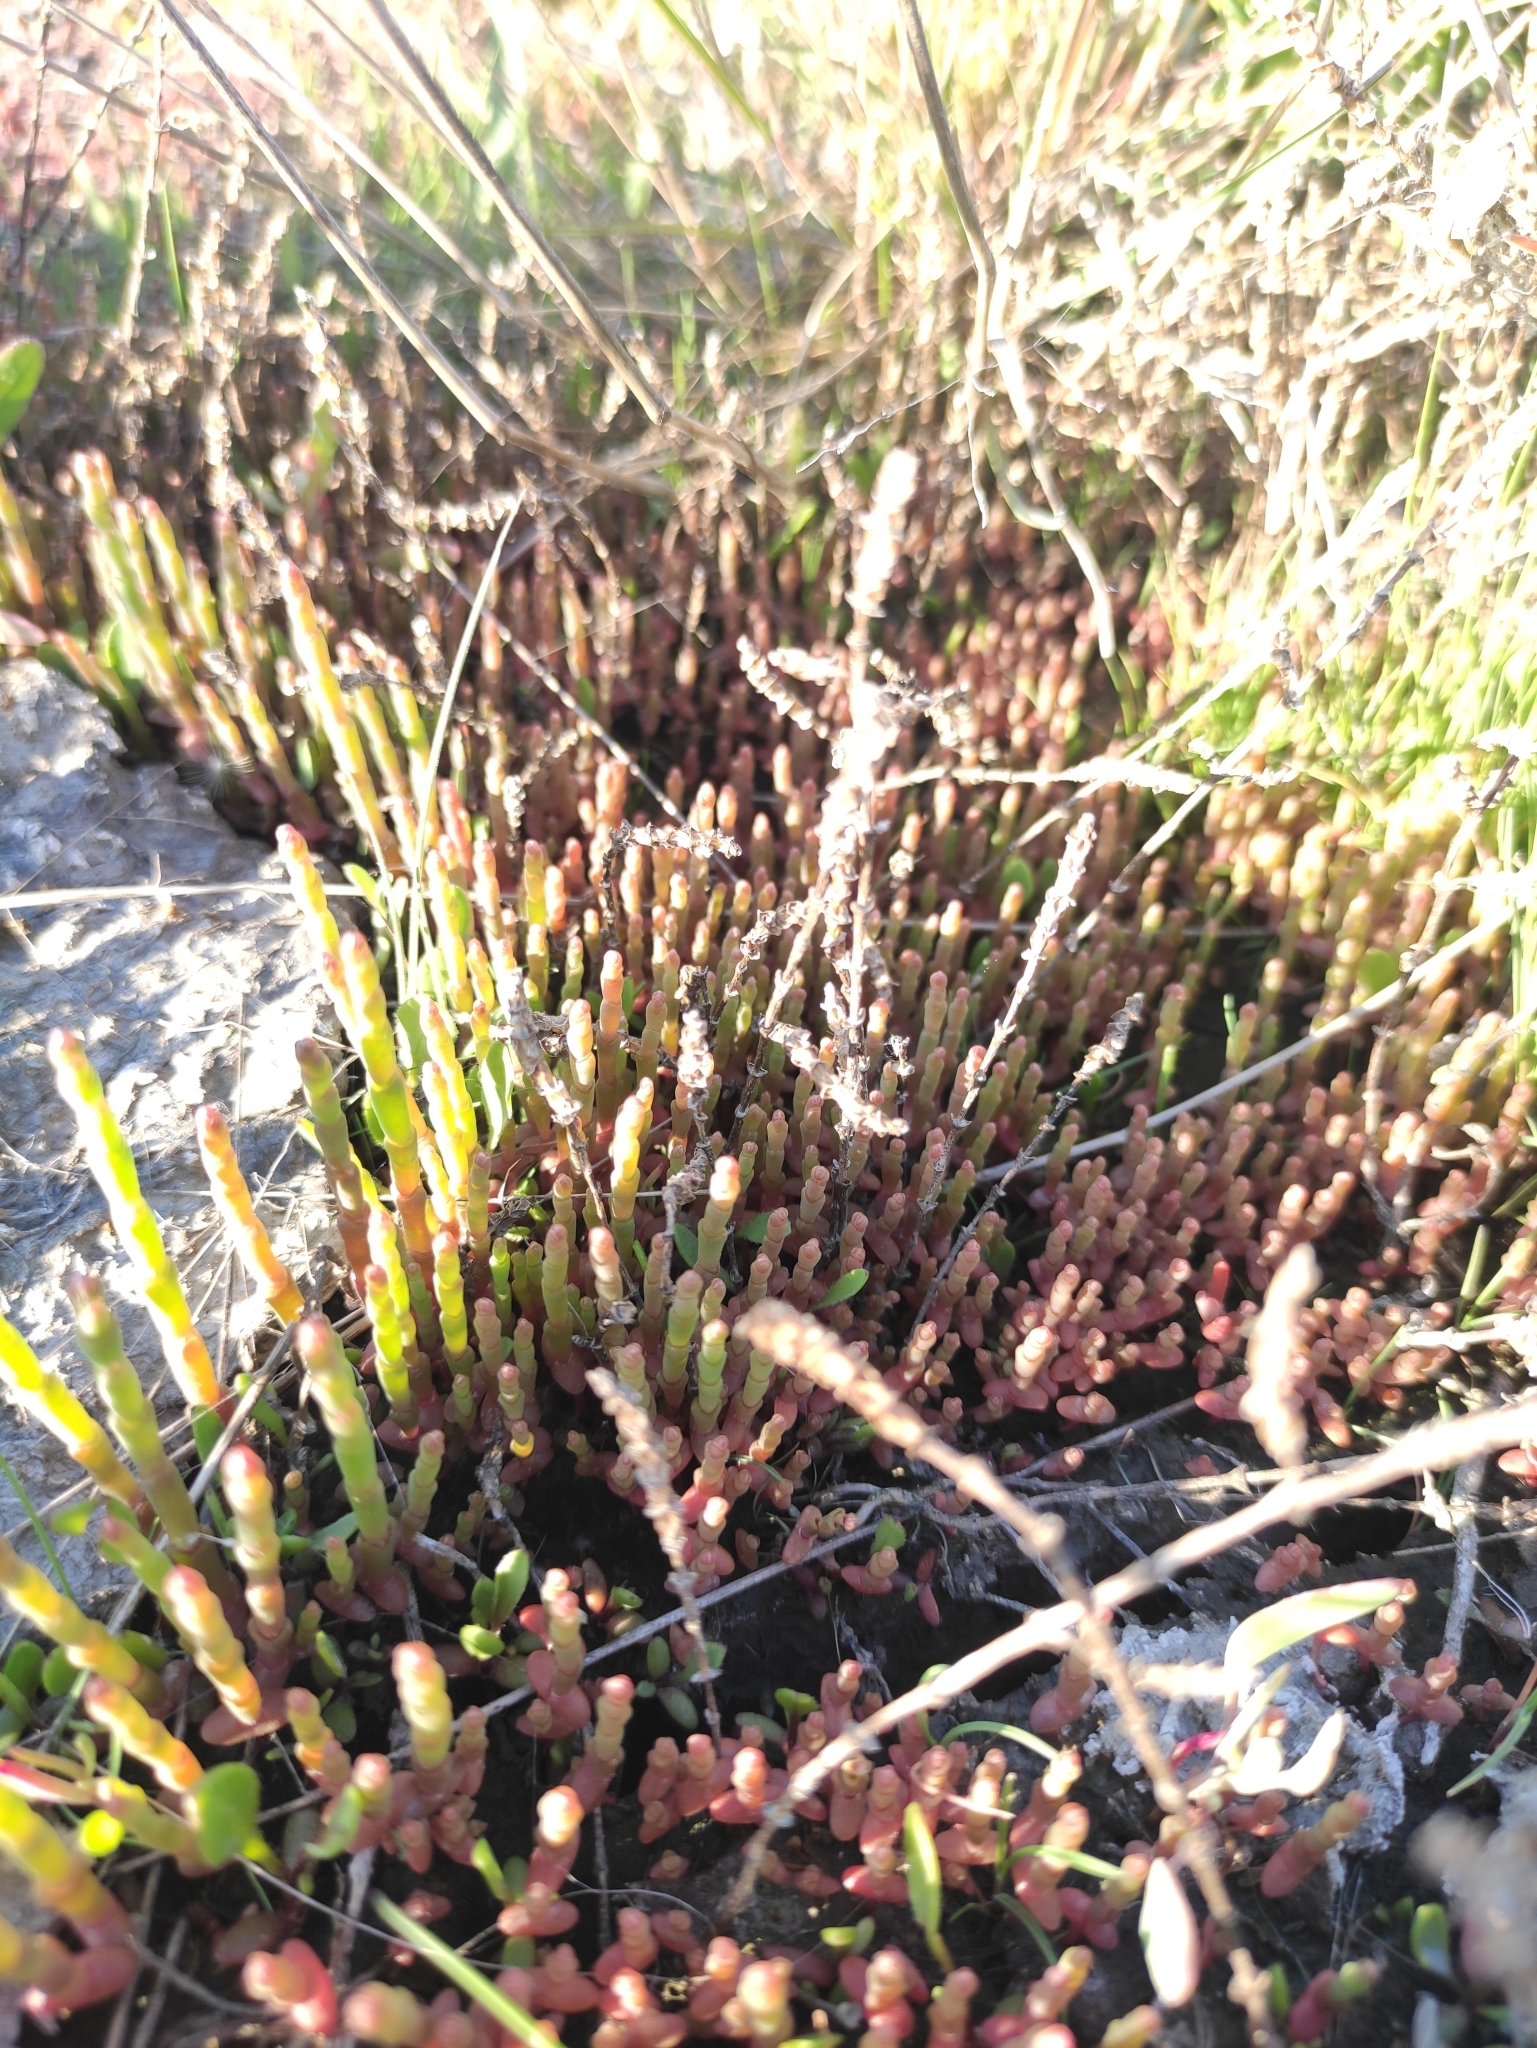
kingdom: Plantae
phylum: Tracheophyta
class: Magnoliopsida
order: Caryophyllales
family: Amaranthaceae
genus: Salicornia
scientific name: Salicornia perennans
